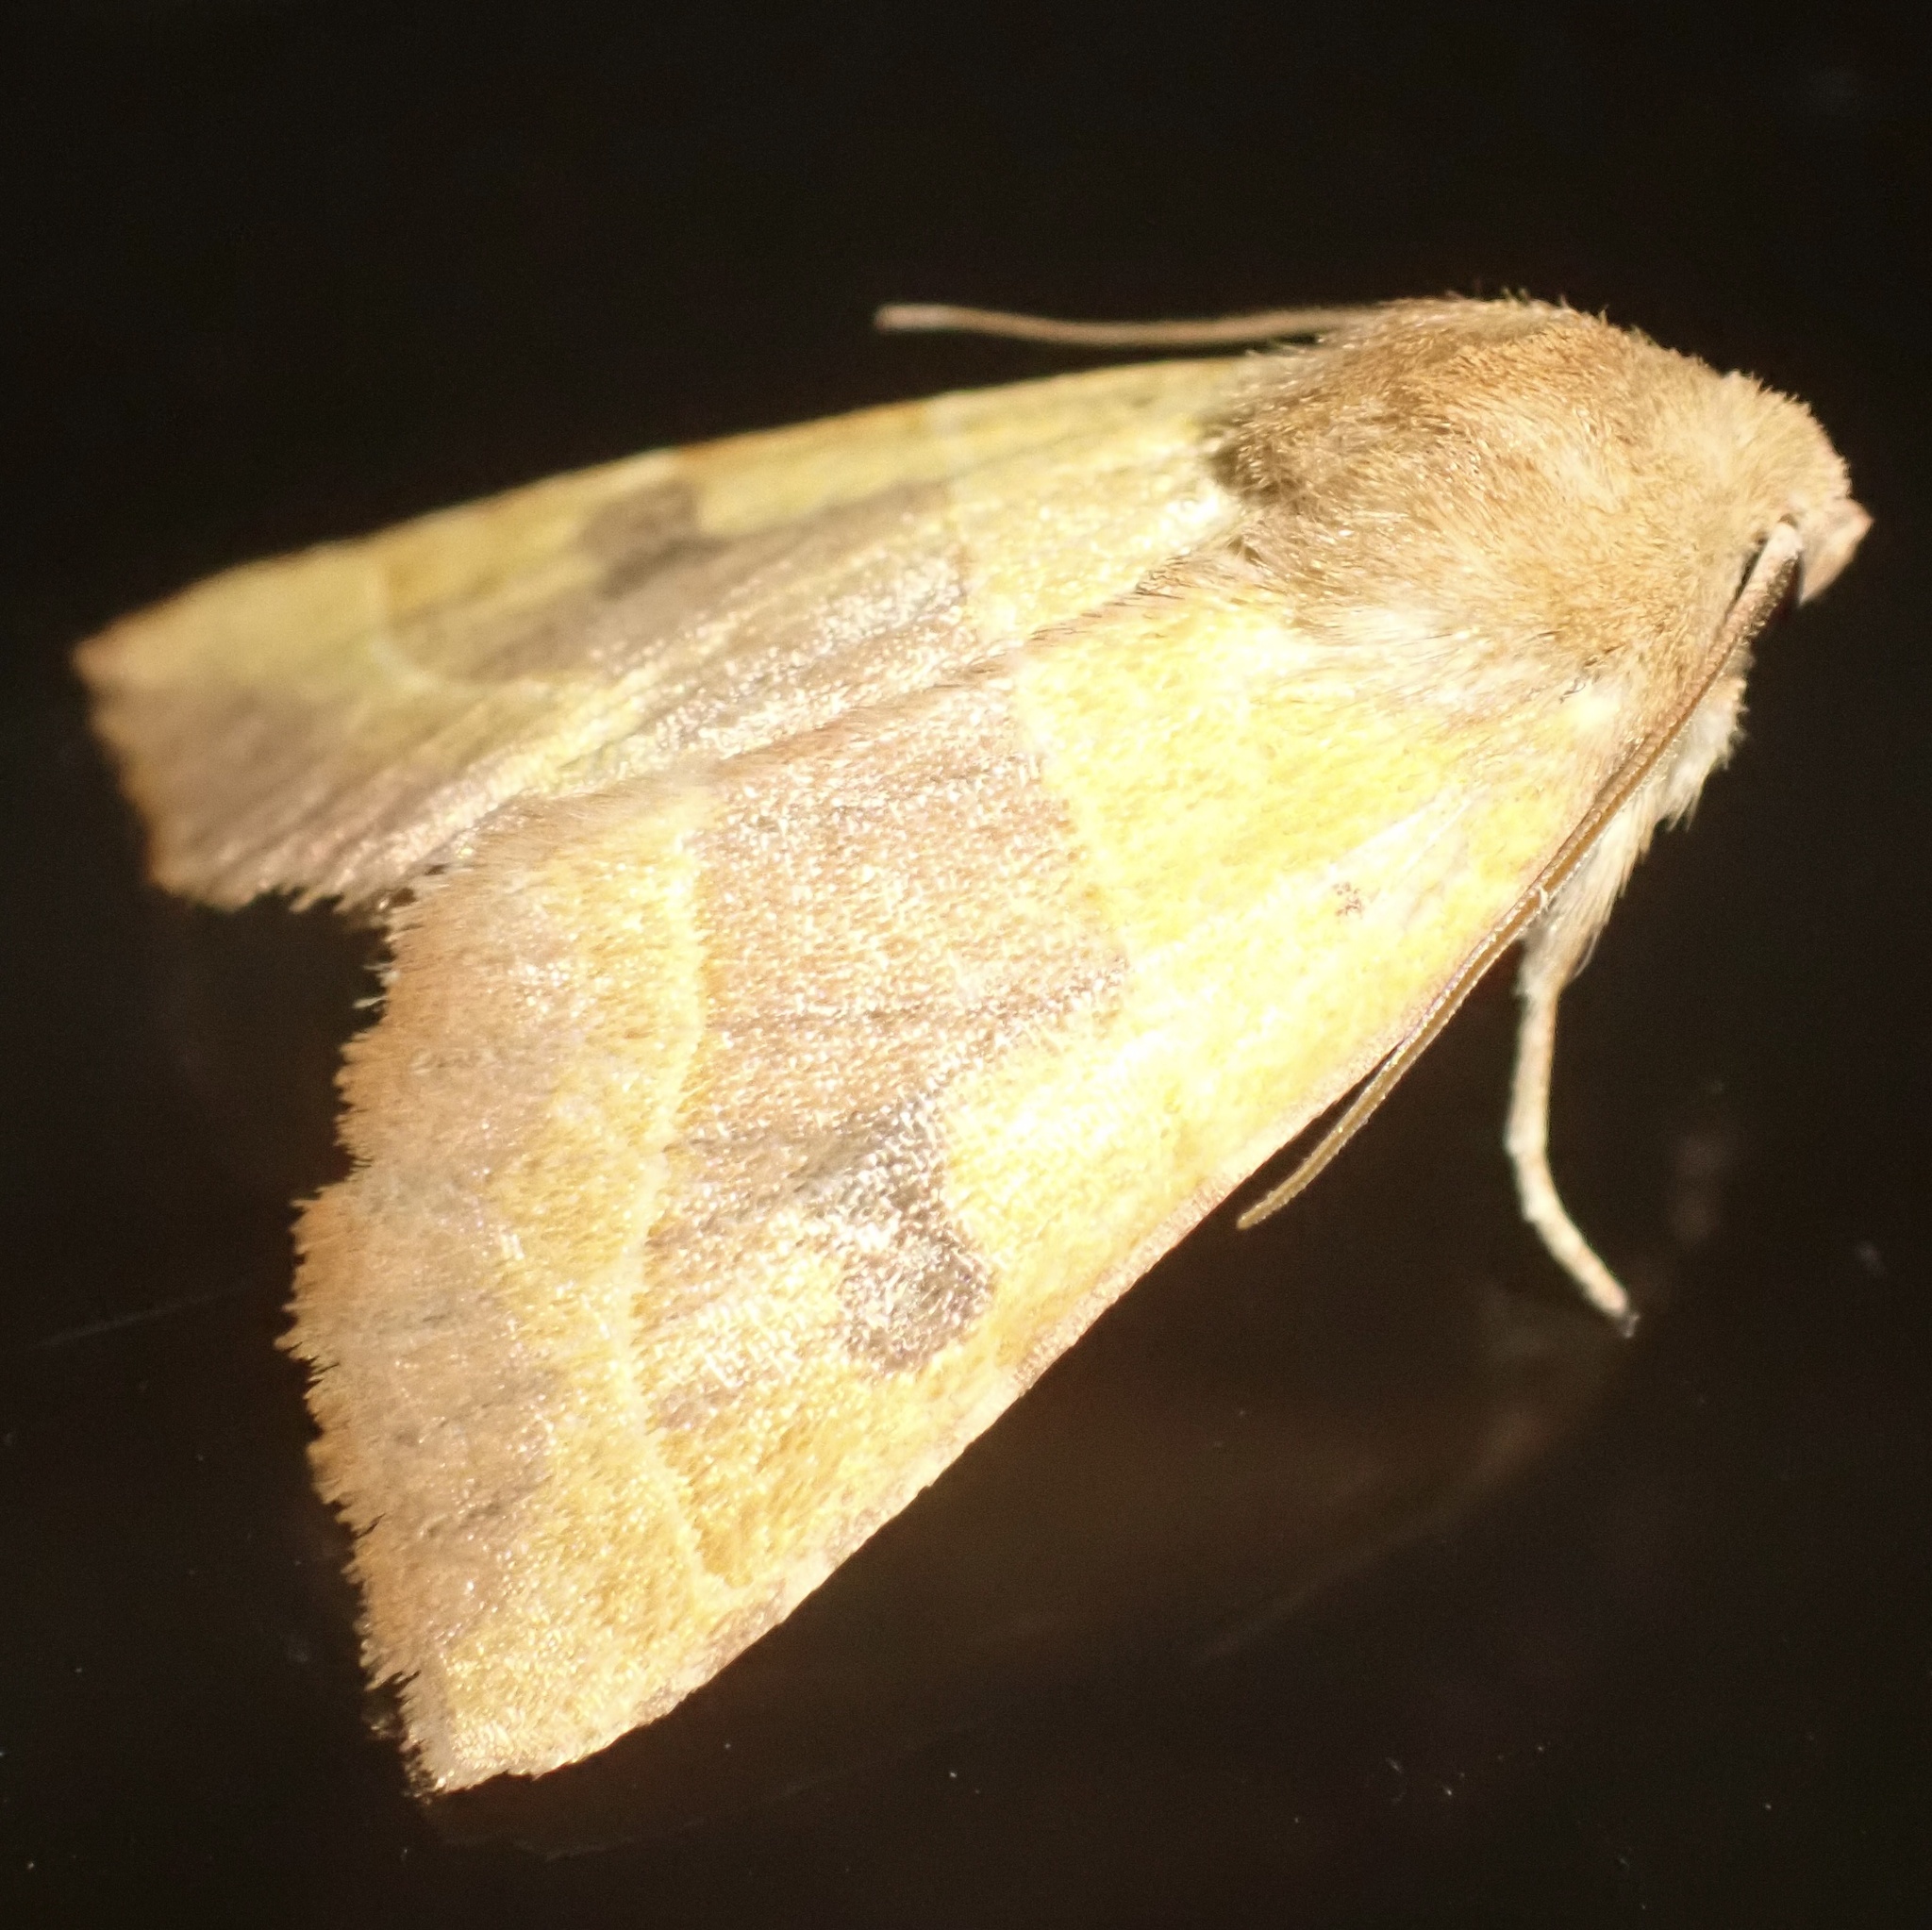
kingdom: Animalia
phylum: Arthropoda
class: Insecta
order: Lepidoptera
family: Noctuidae
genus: Atethmia
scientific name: Atethmia centrago
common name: Centre-barred sallow
